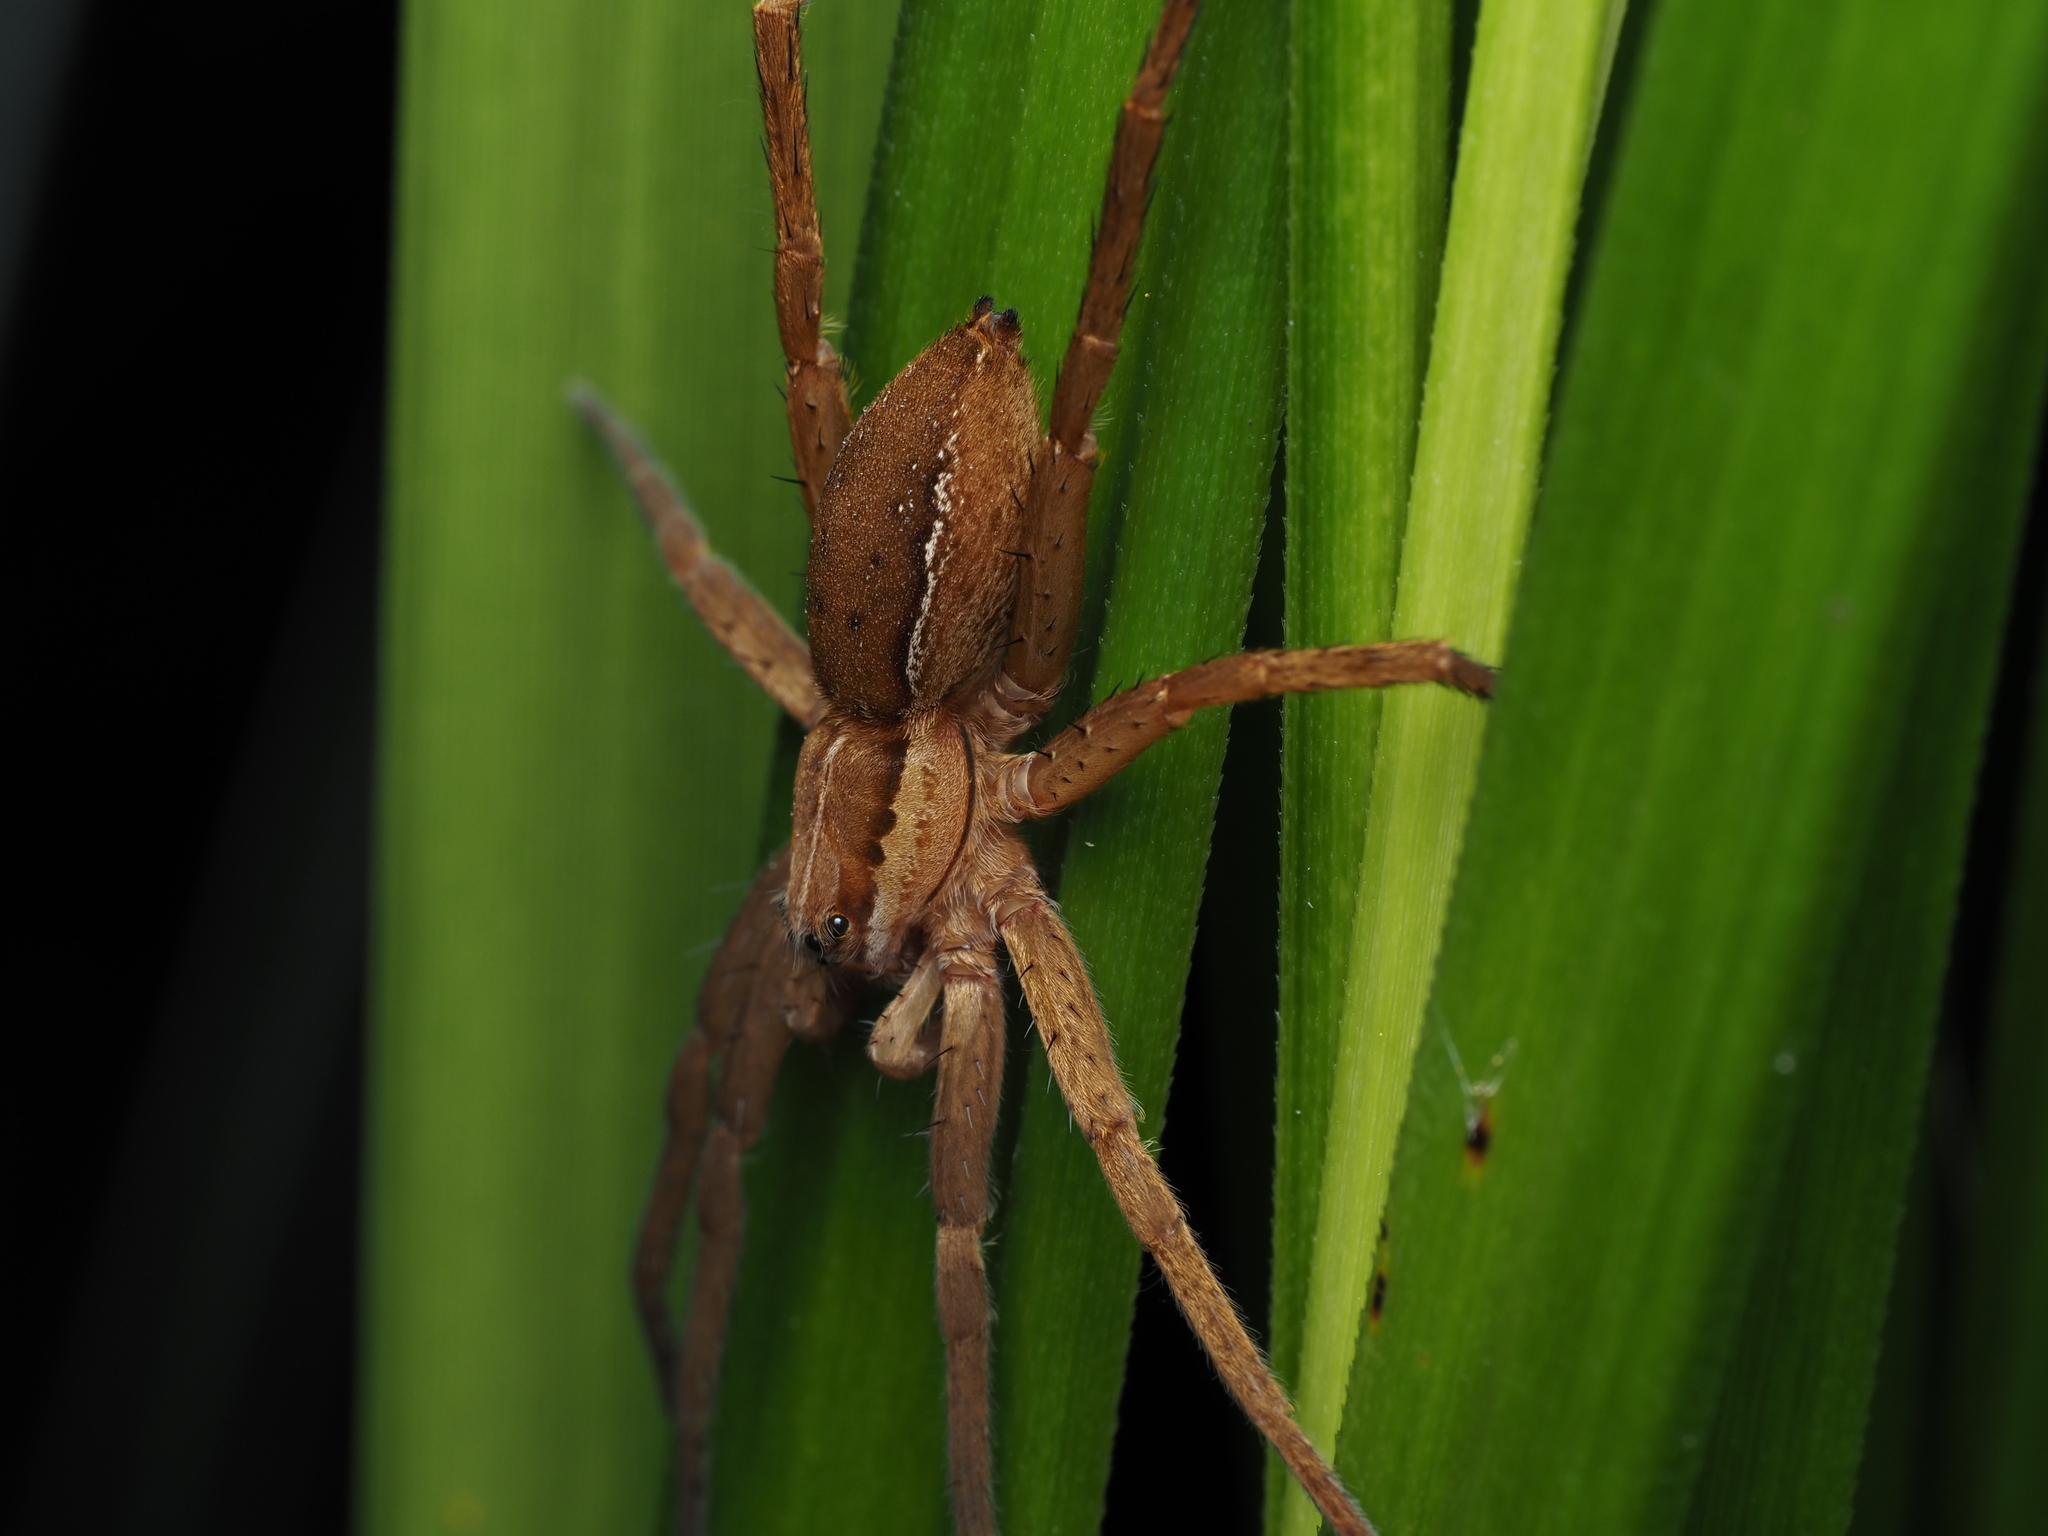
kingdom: Animalia
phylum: Arthropoda
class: Arachnida
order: Araneae
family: Pisauridae
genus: Dolomedes
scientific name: Dolomedes minor
